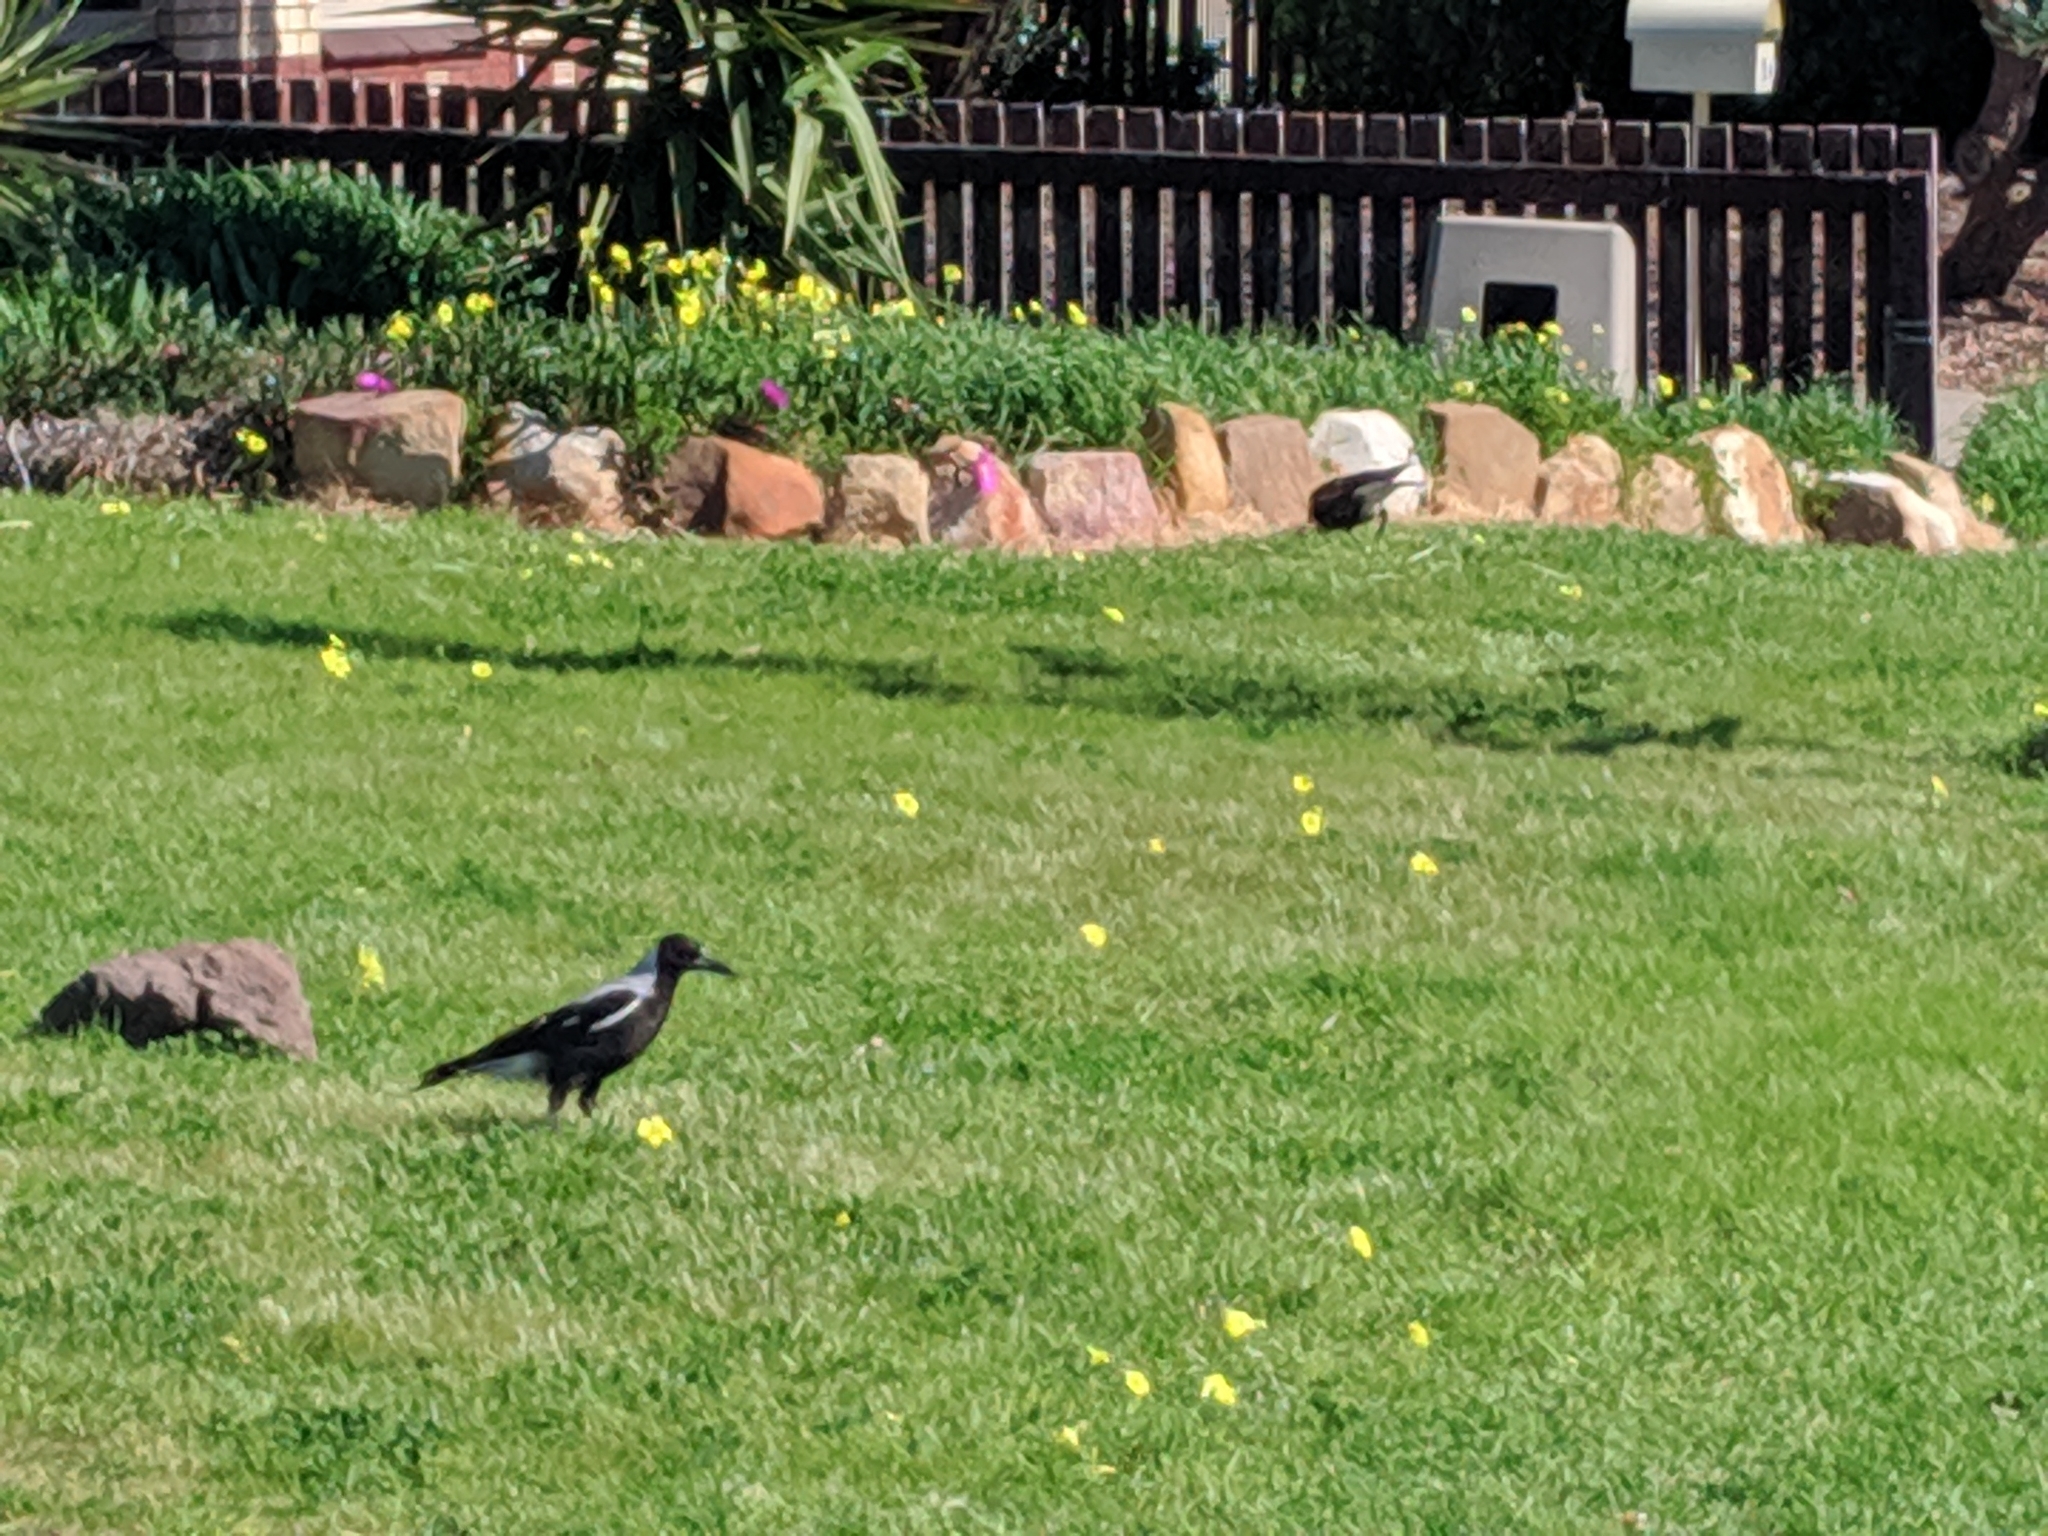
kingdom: Animalia
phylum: Chordata
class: Aves
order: Passeriformes
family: Cracticidae
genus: Gymnorhina
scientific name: Gymnorhina tibicen
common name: Australian magpie
